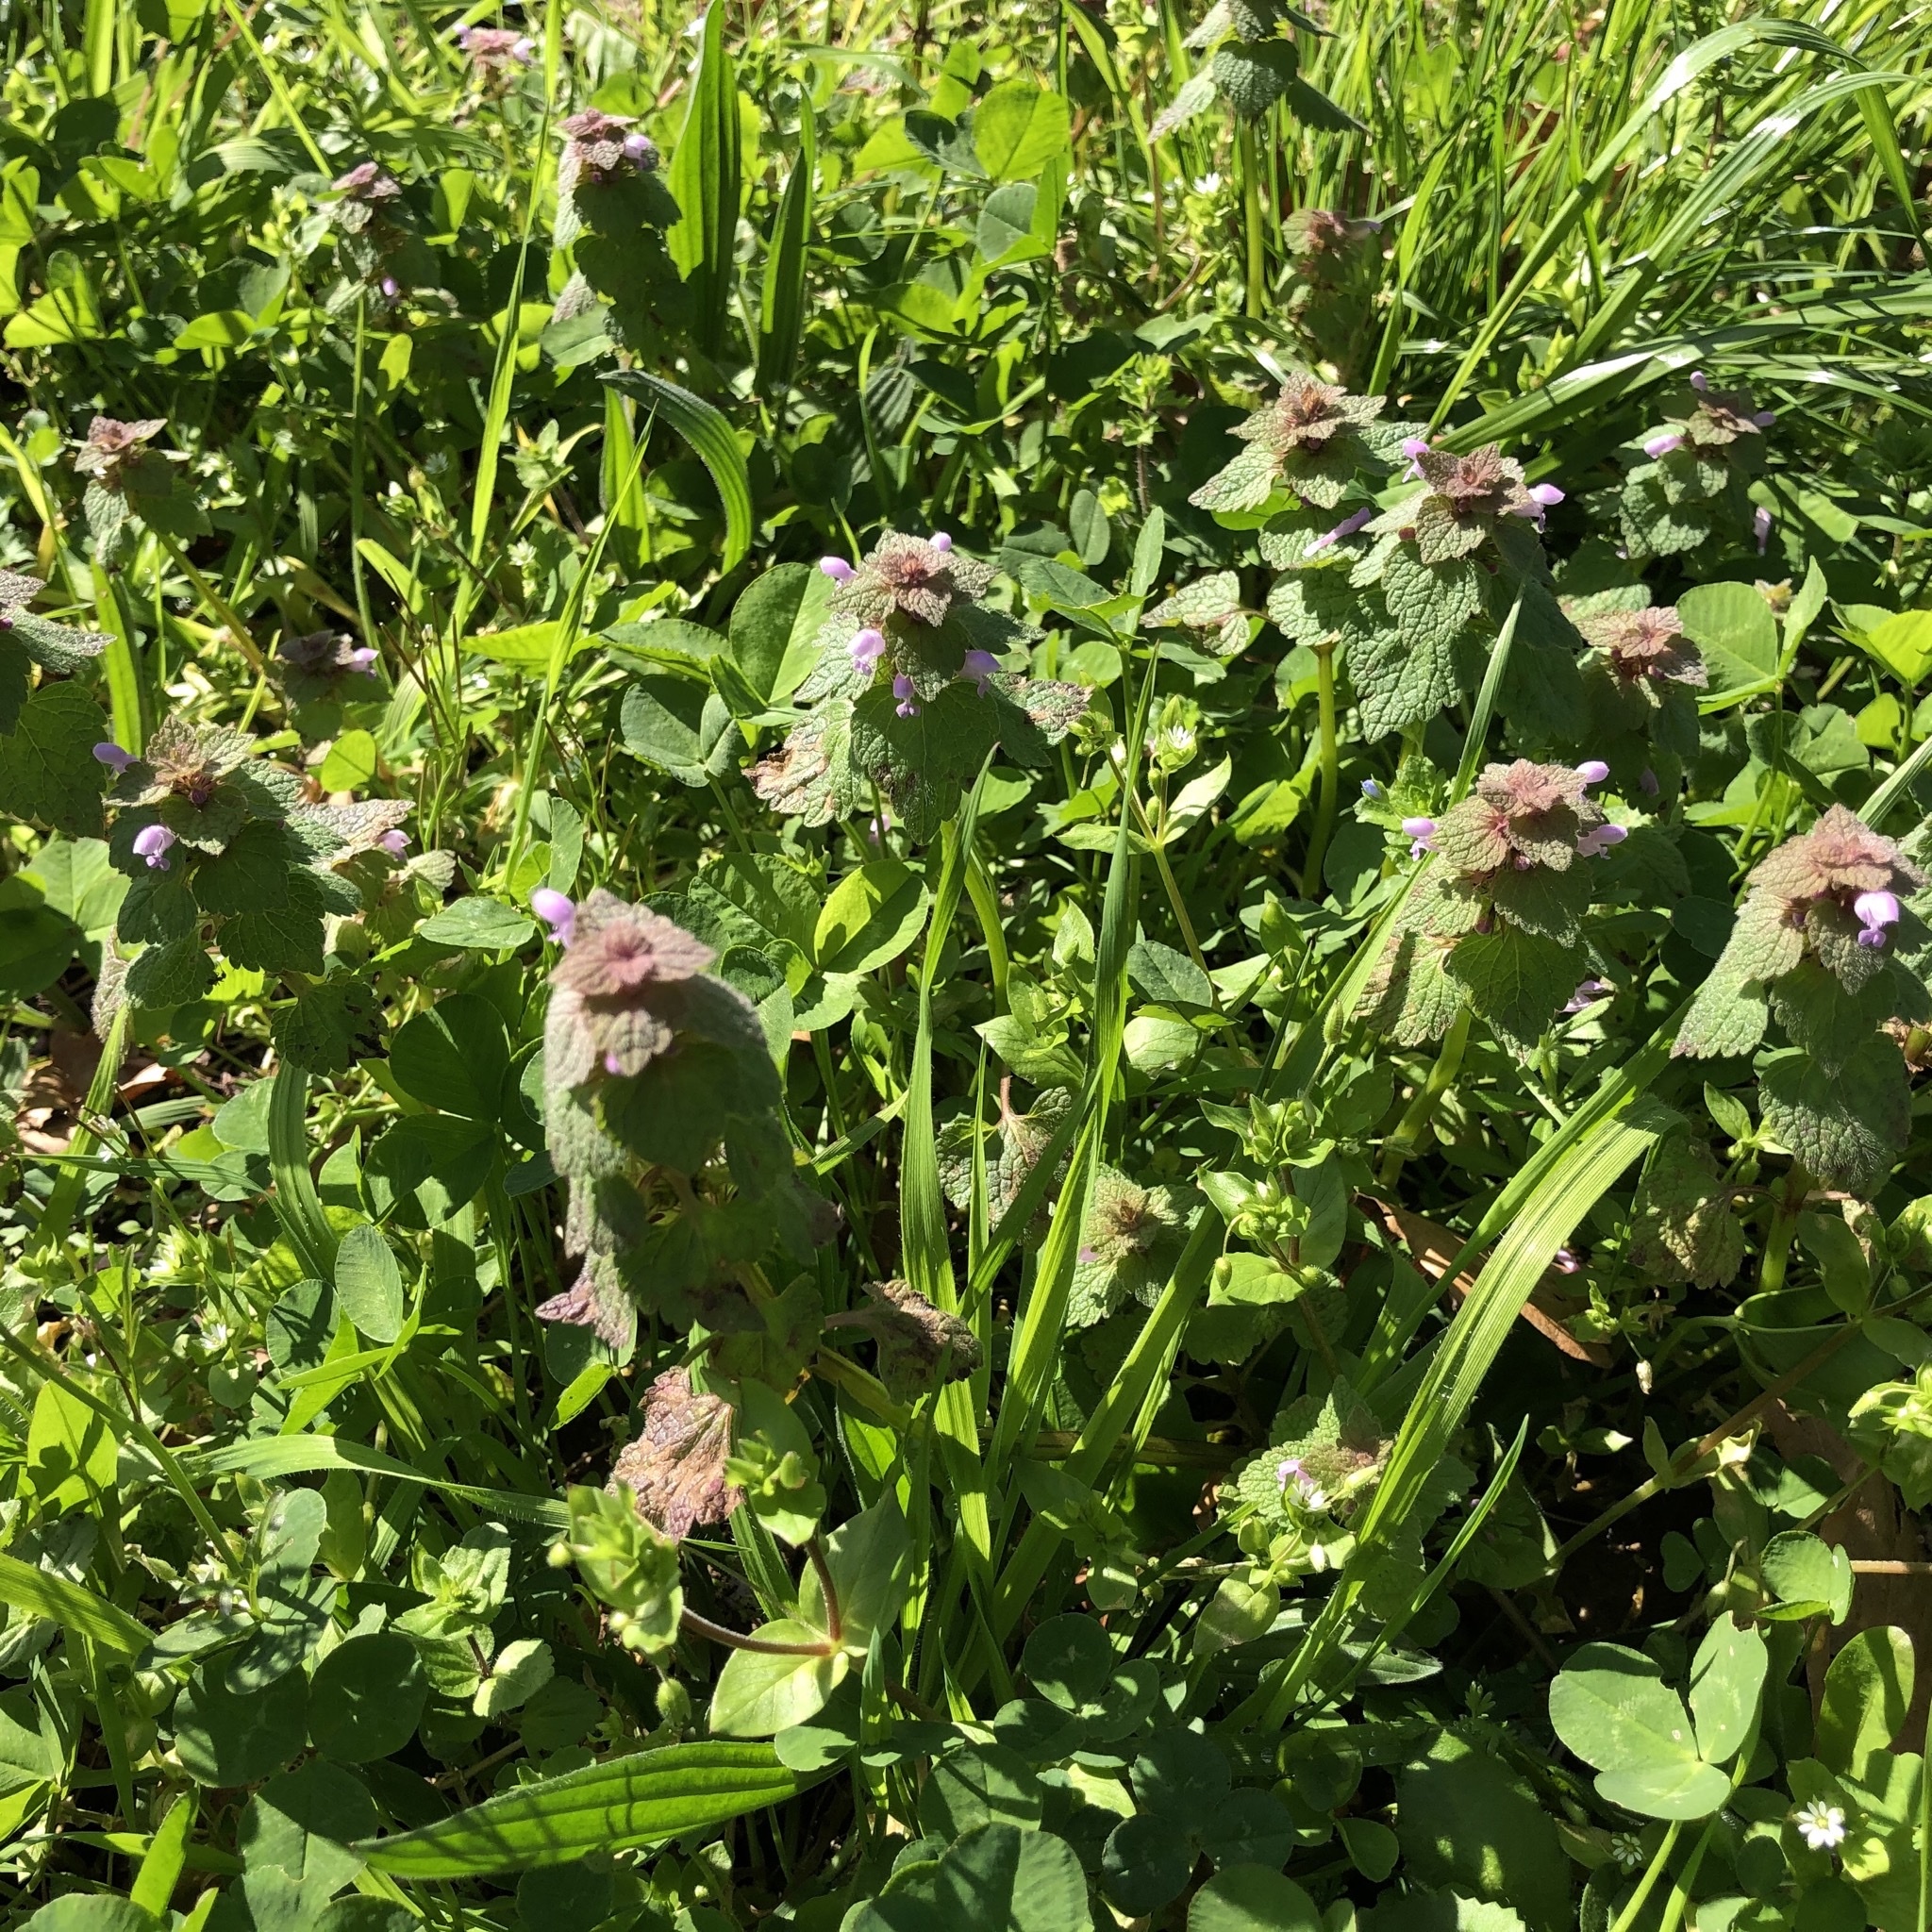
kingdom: Plantae
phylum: Tracheophyta
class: Magnoliopsida
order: Lamiales
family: Lamiaceae
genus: Lamium
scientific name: Lamium purpureum
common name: Red dead-nettle
